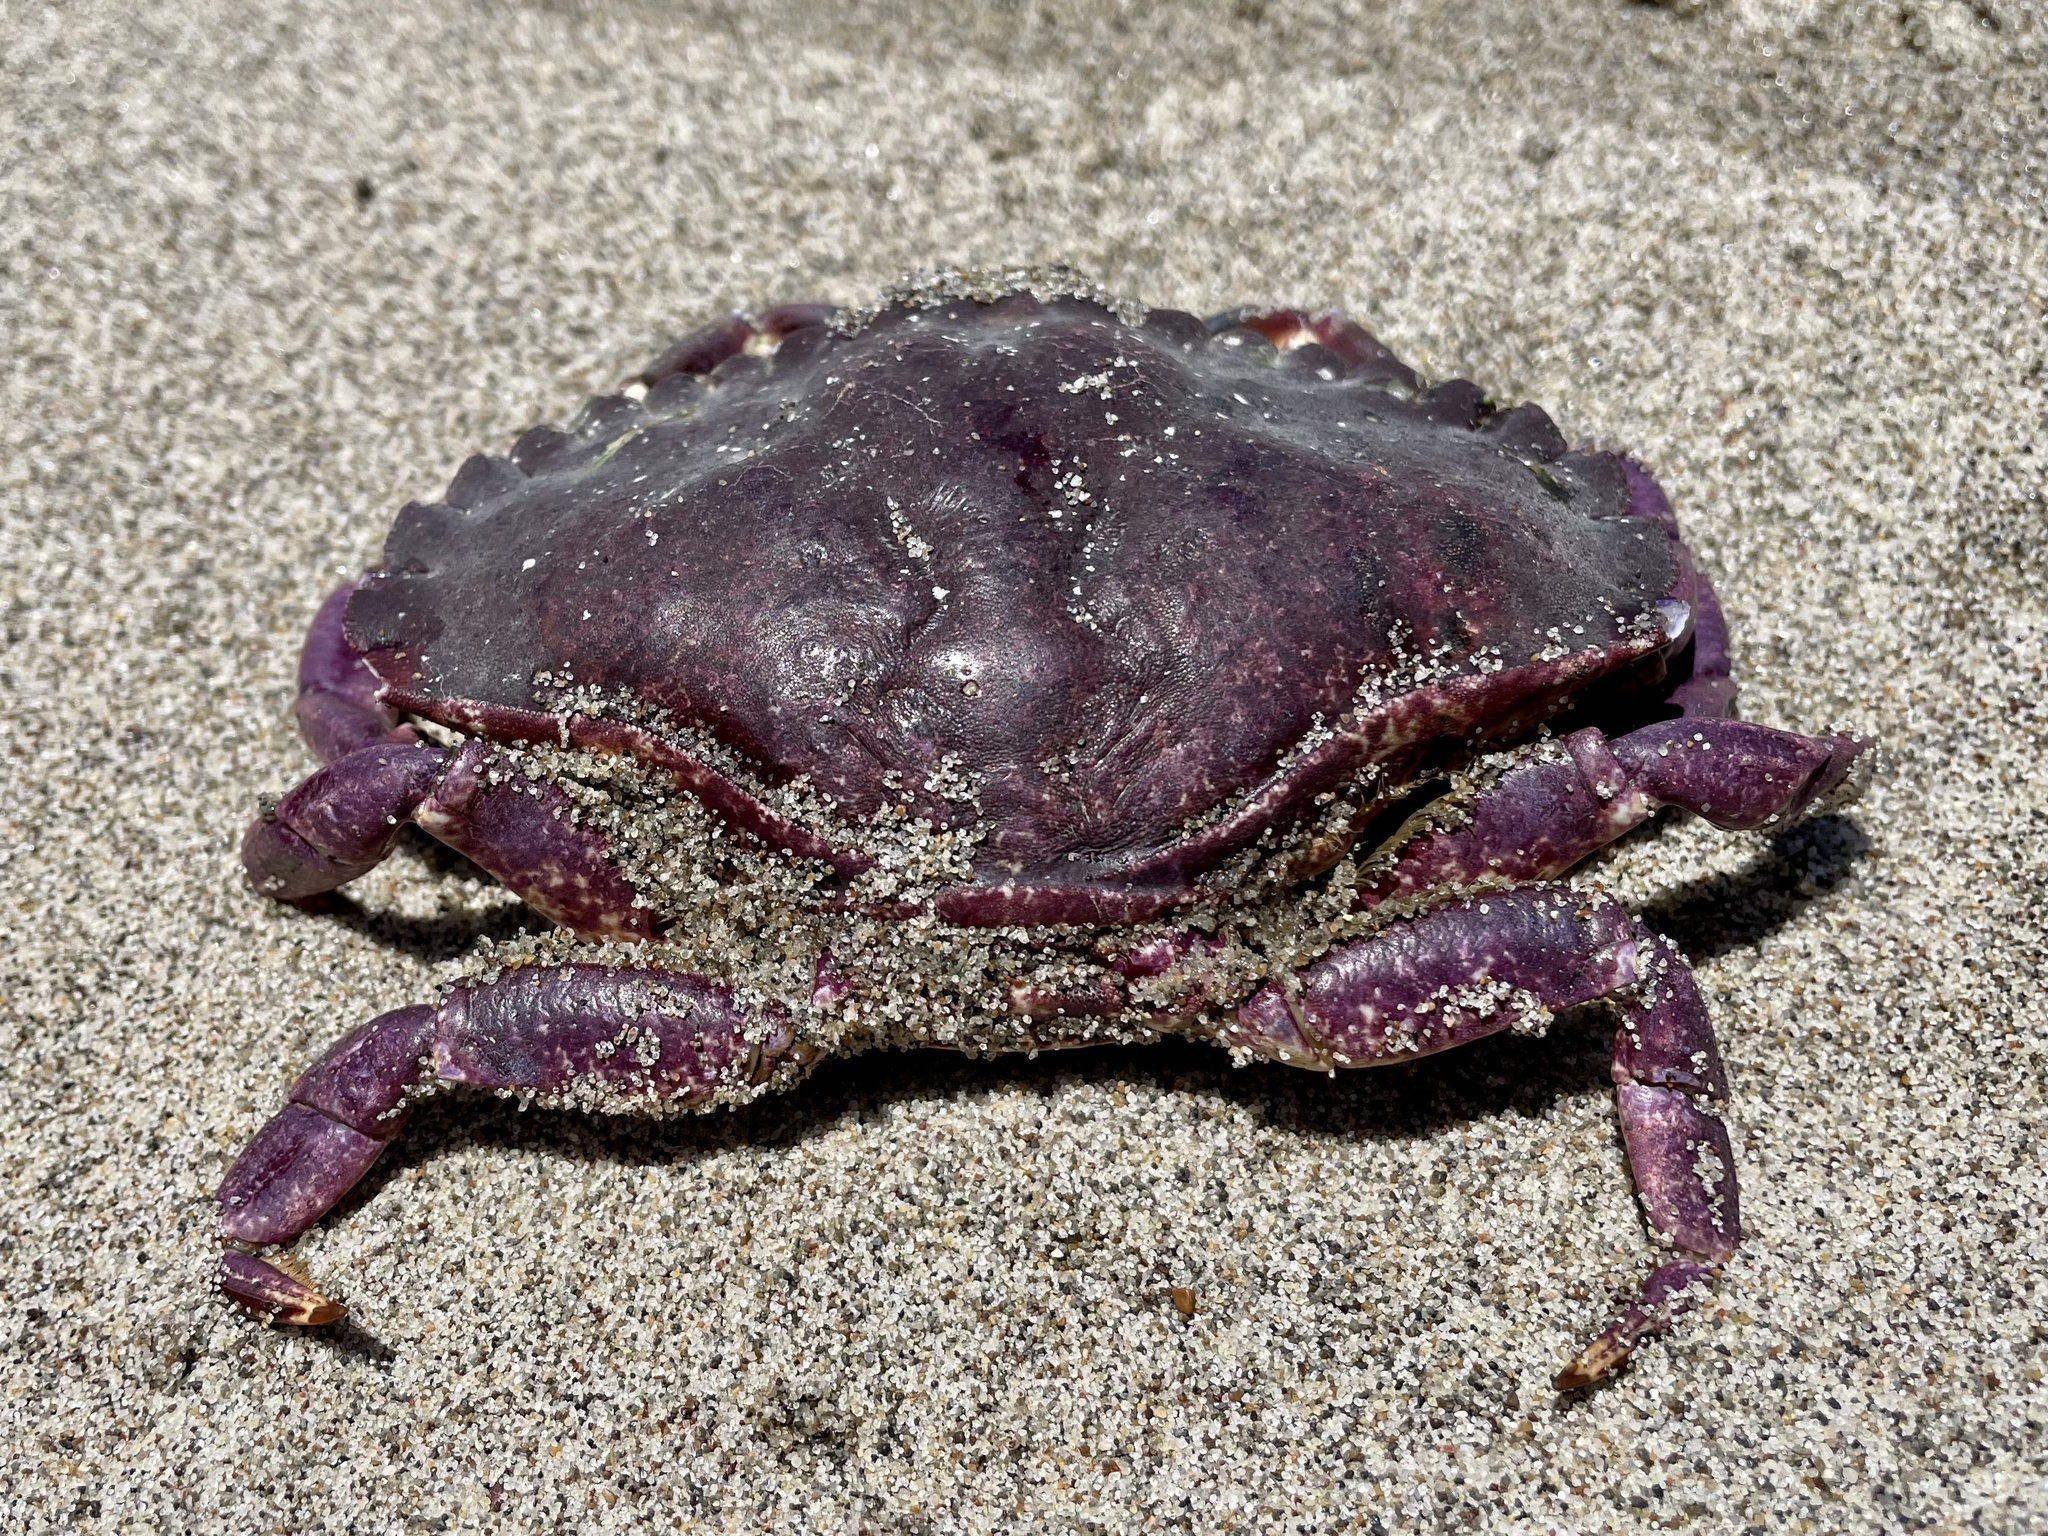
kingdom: Animalia
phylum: Arthropoda
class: Malacostraca
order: Decapoda
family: Cancridae
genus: Cancer
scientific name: Cancer productus
